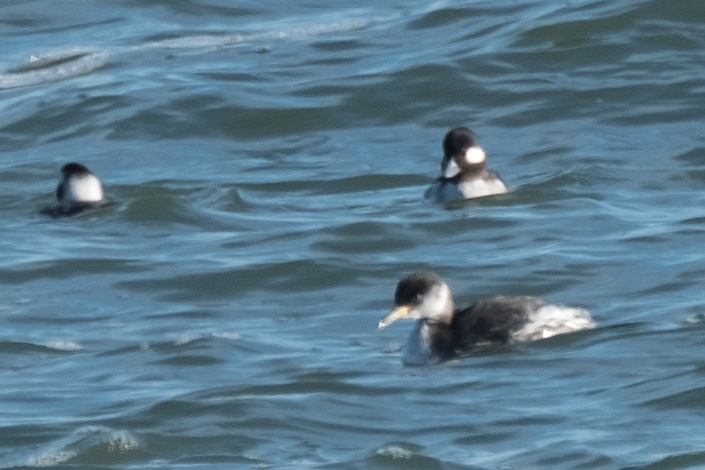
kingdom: Animalia
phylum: Chordata
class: Aves
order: Podicipediformes
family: Podicipedidae
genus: Podiceps
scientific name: Podiceps grisegena
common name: Red-necked grebe
